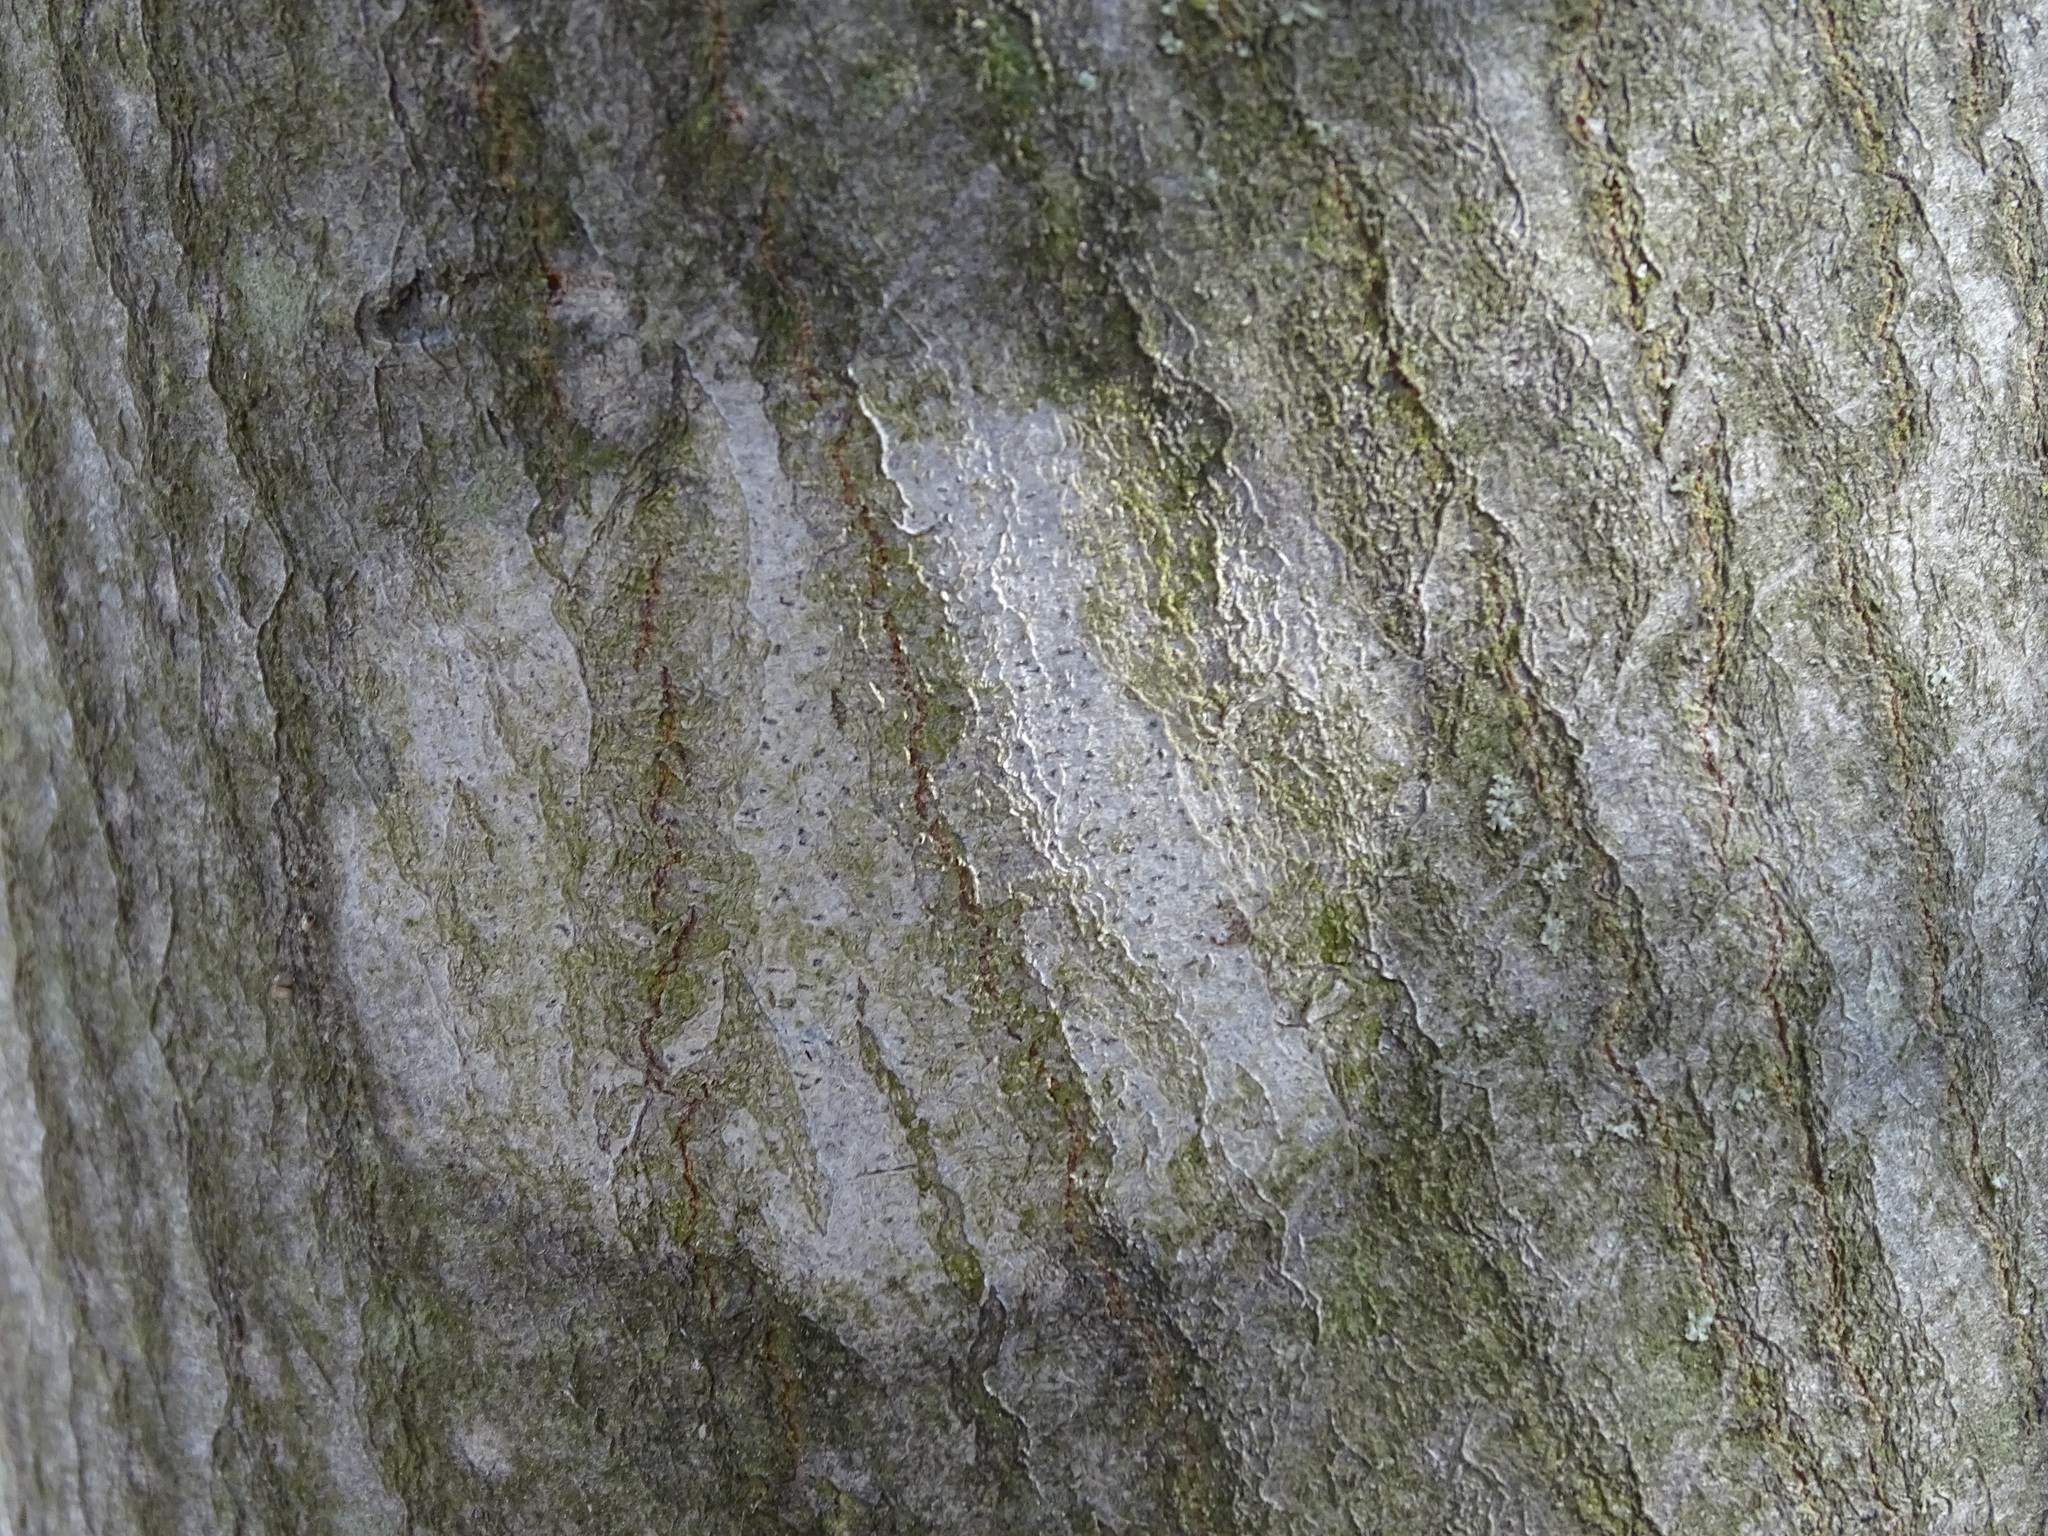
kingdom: Fungi
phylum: Ascomycota
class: Arthoniomycetes
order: Arthoniales
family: Arthoniaceae
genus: Arthonia
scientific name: Arthonia granosa
